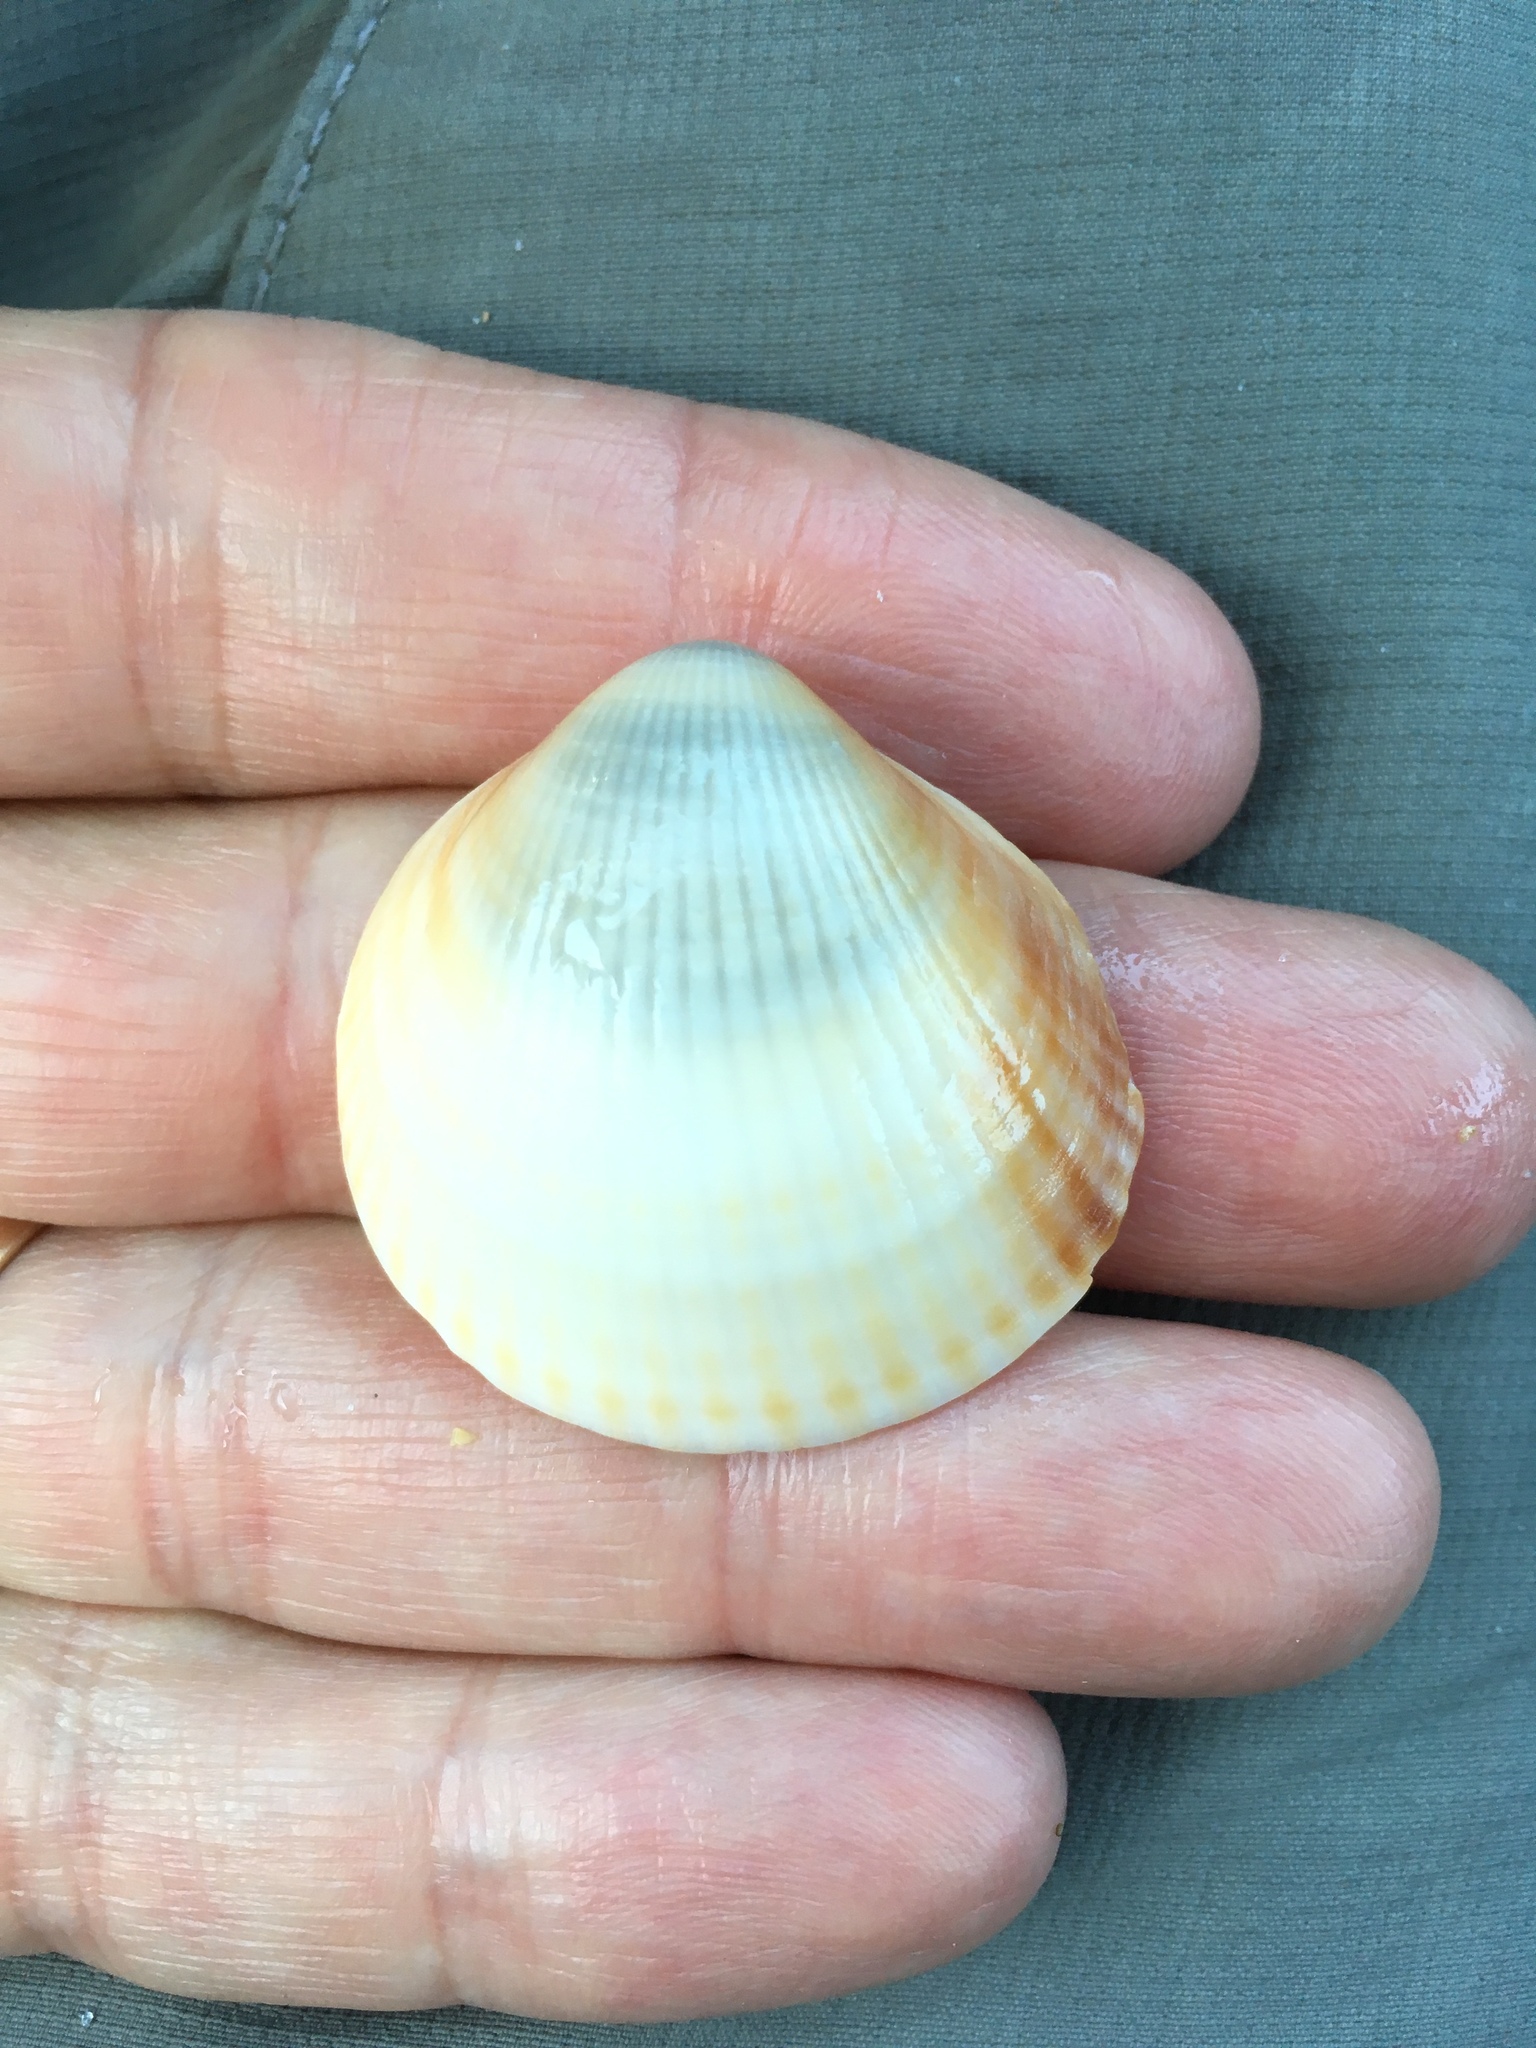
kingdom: Animalia
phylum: Mollusca
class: Bivalvia
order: Arcida
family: Glycymerididae
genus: Glycymeris
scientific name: Glycymeris spectralis
